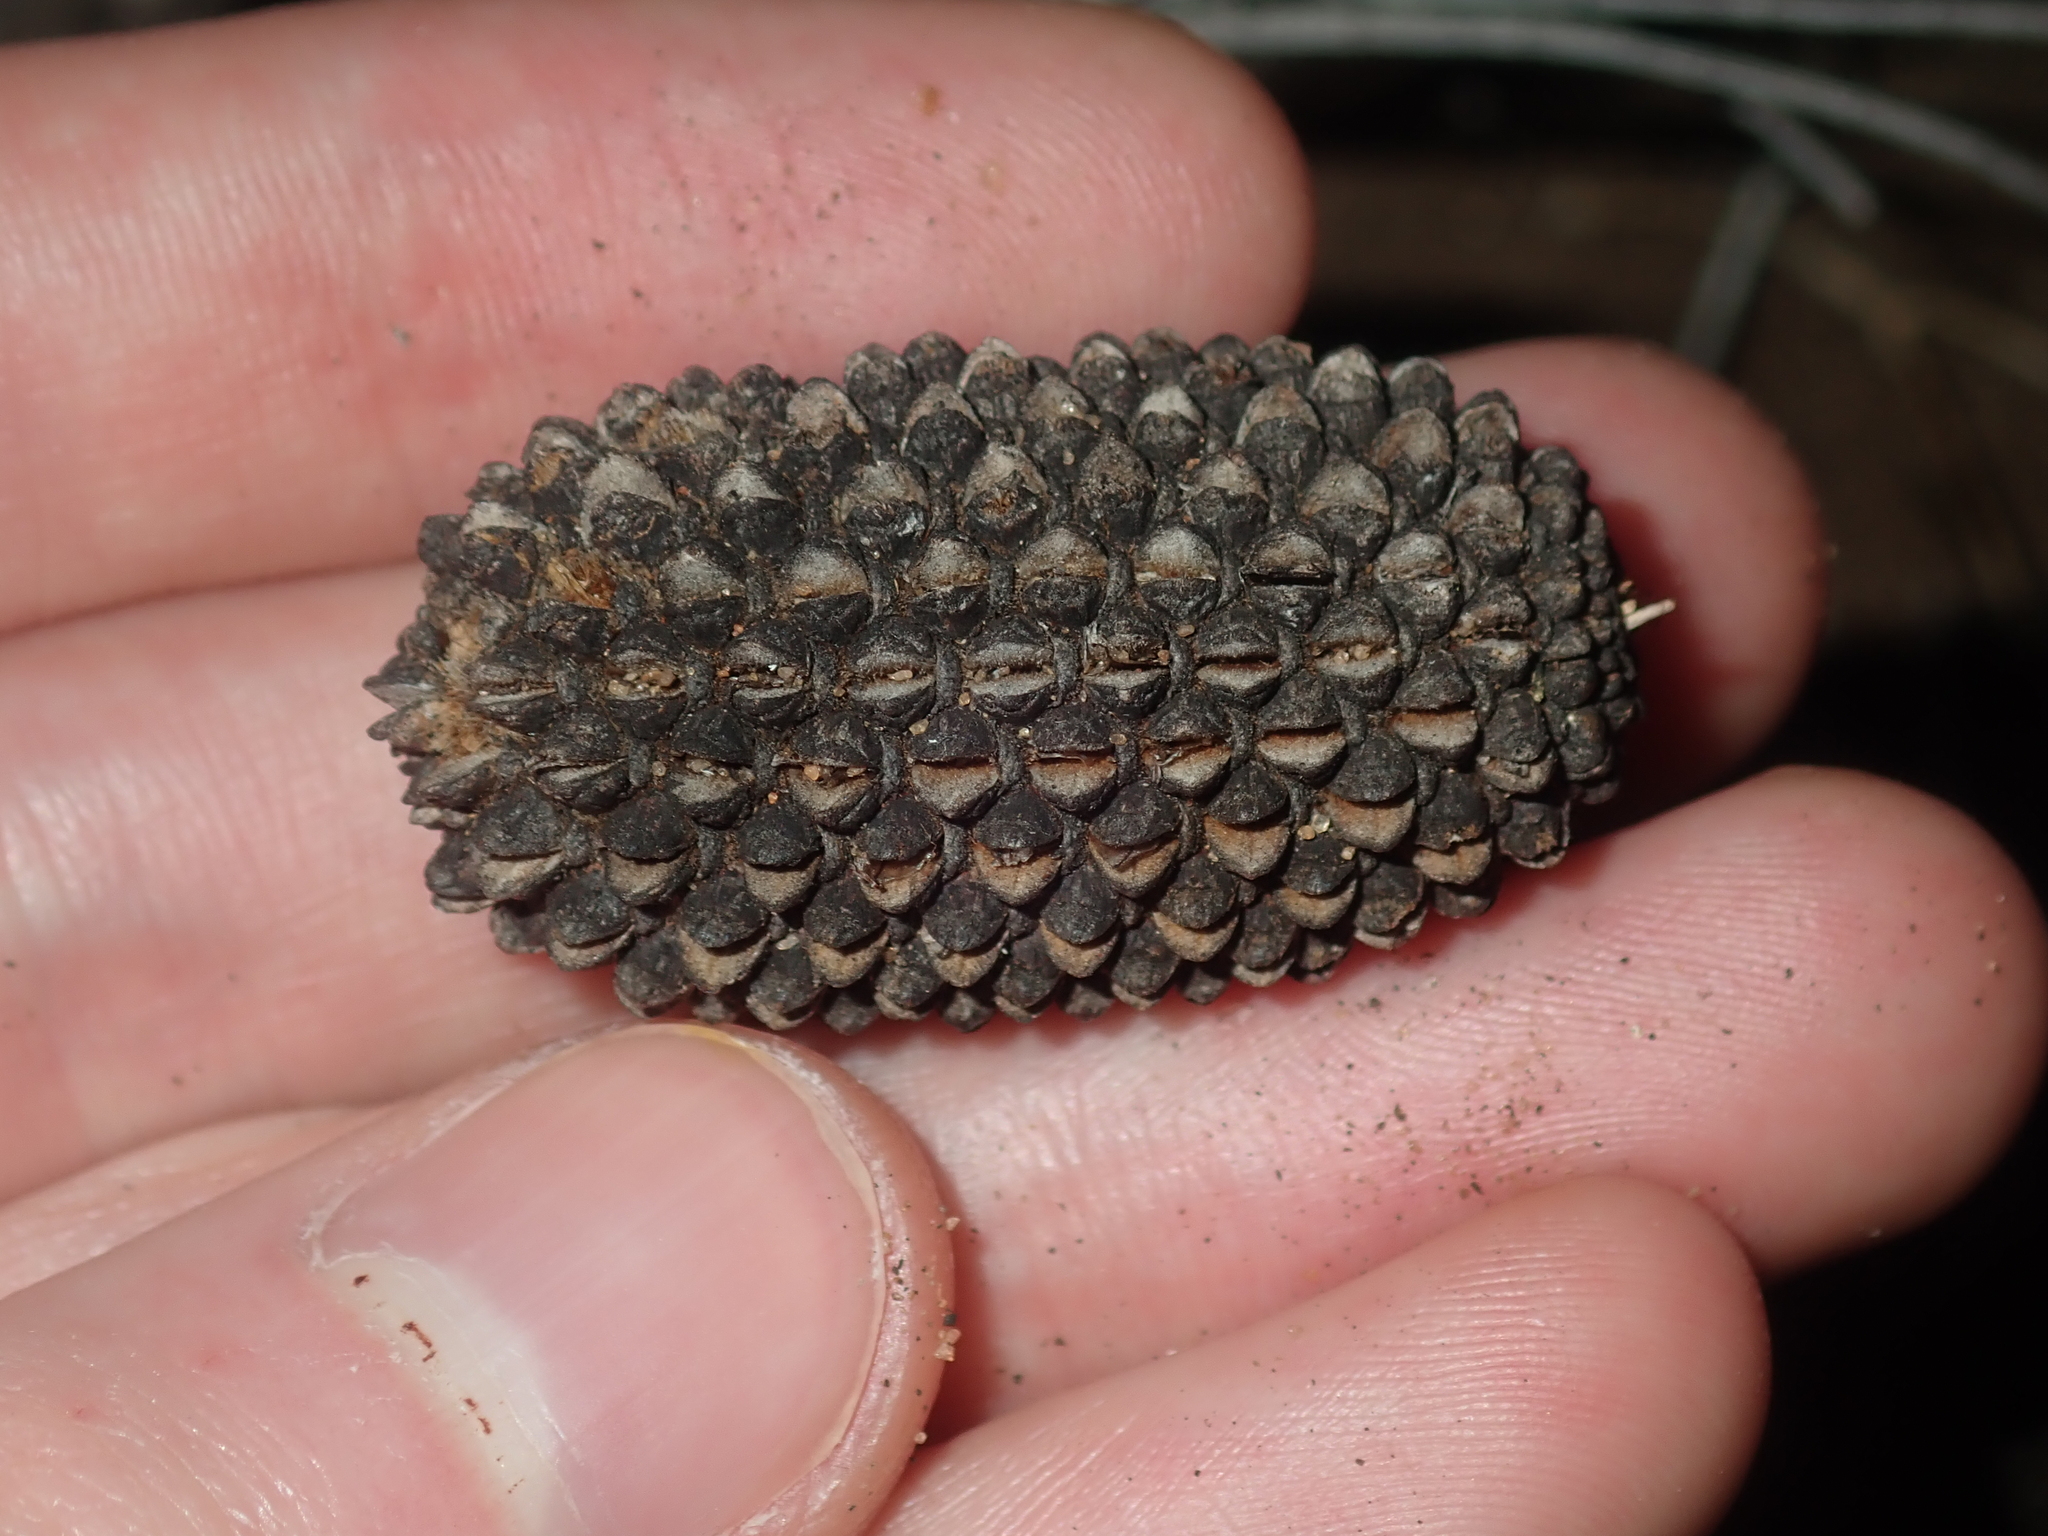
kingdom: Plantae
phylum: Tracheophyta
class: Magnoliopsida
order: Fagales
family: Casuarinaceae
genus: Allocasuarina
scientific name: Allocasuarina campestris
